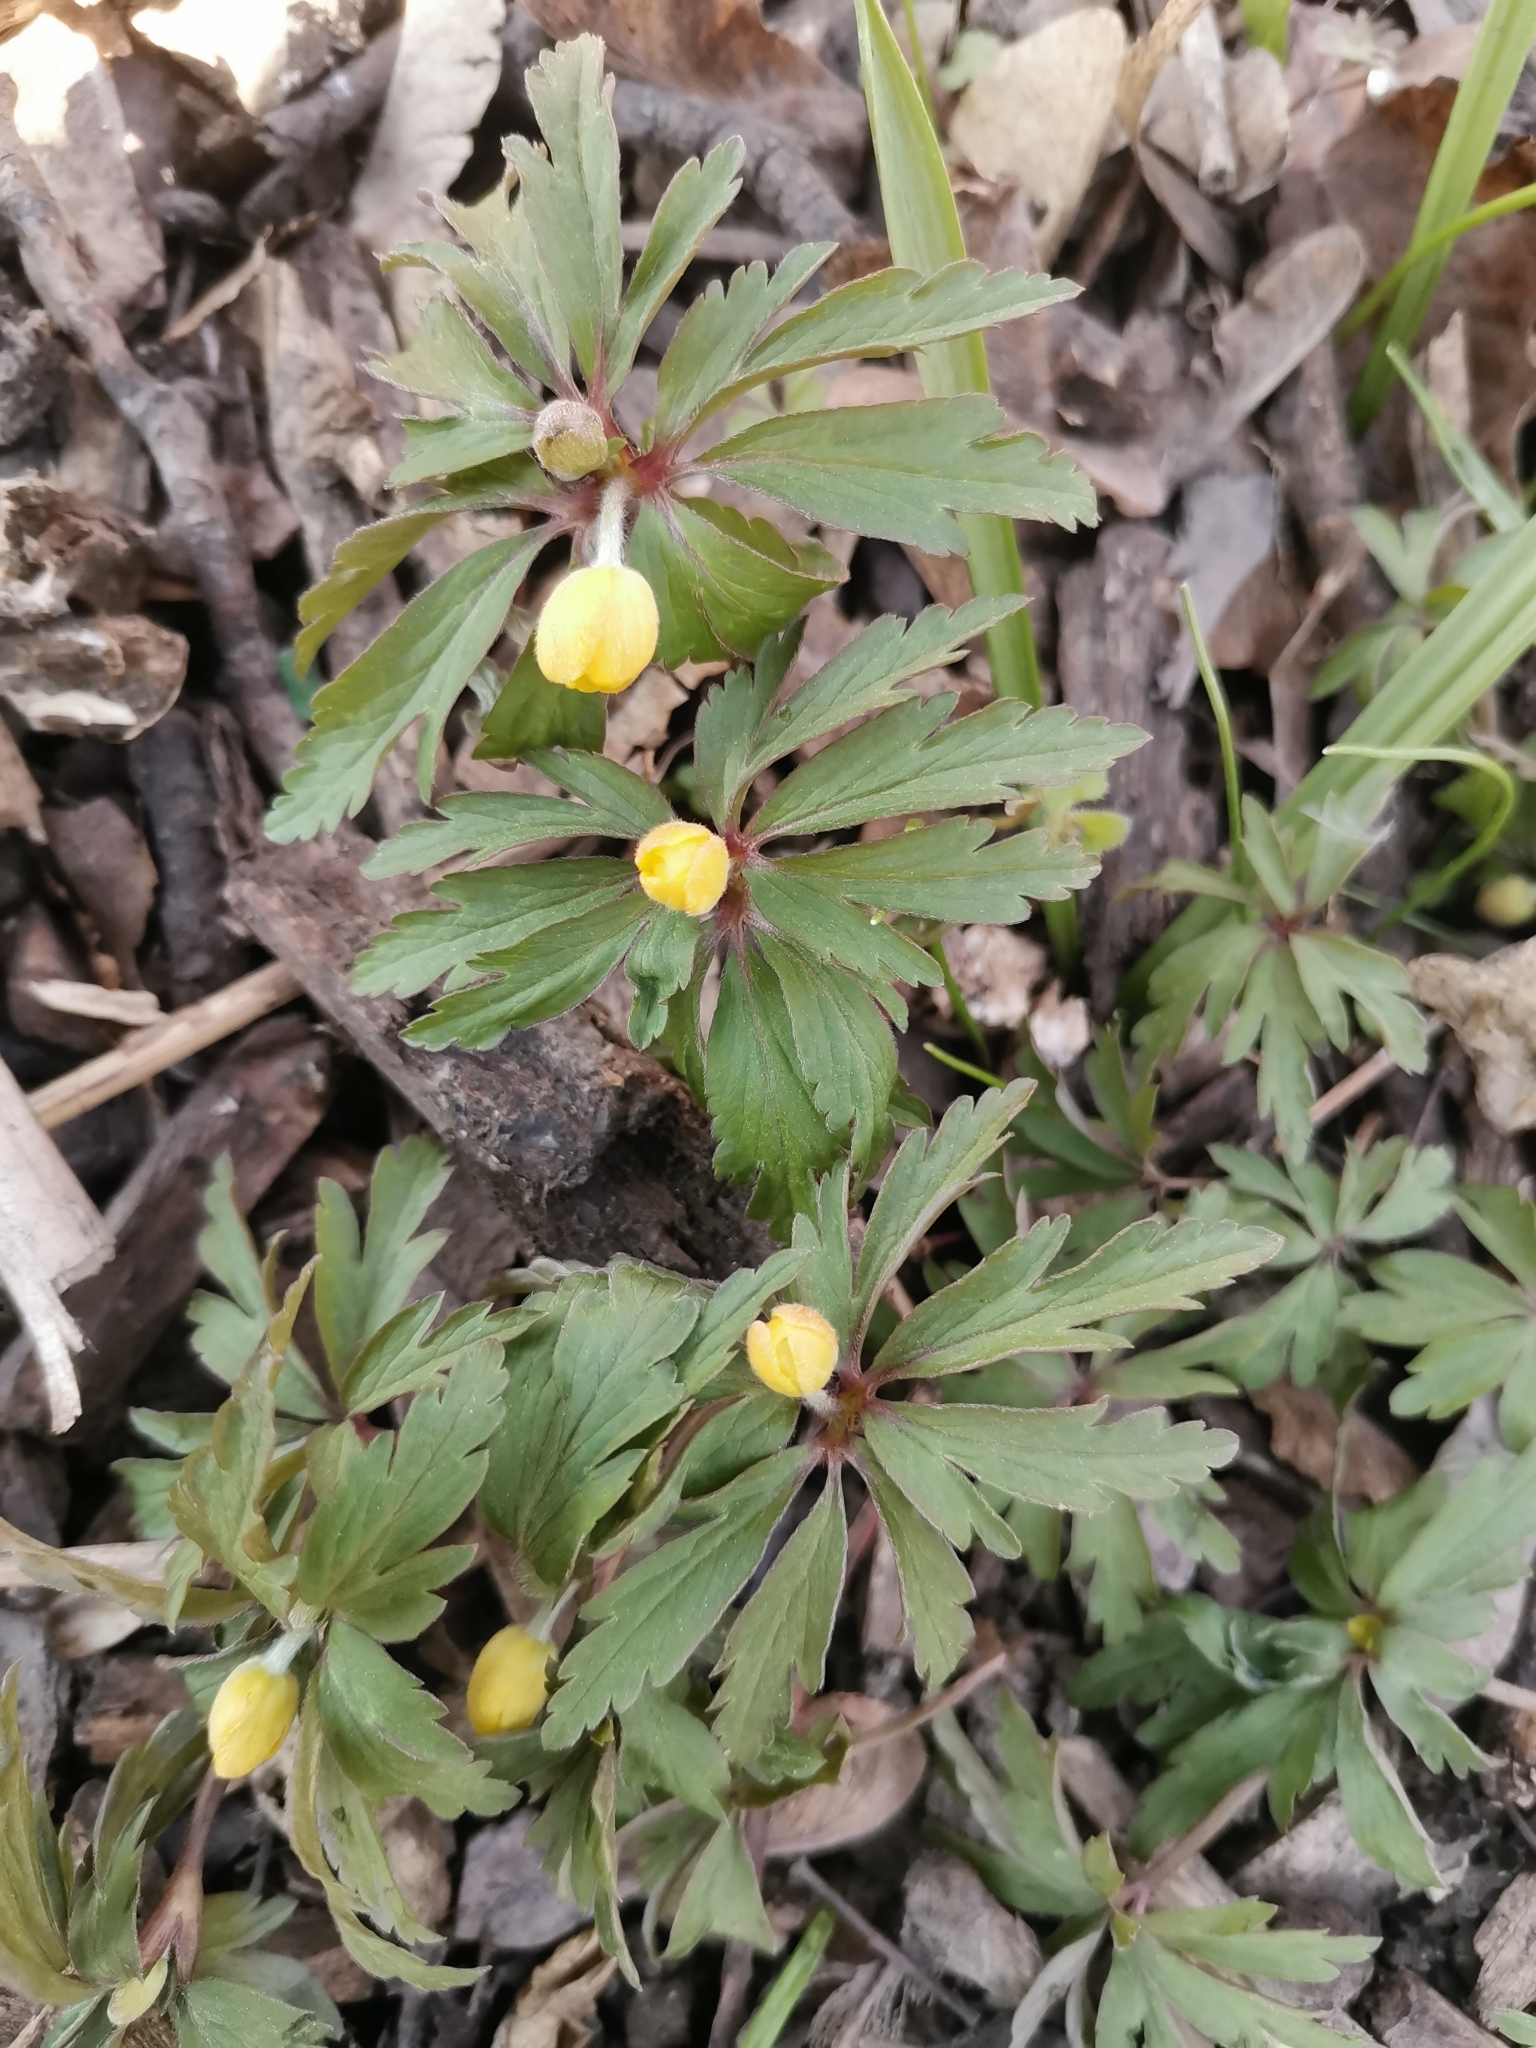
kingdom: Plantae
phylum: Tracheophyta
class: Magnoliopsida
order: Ranunculales
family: Ranunculaceae
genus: Anemone
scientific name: Anemone ranunculoides
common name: Yellow anemone
